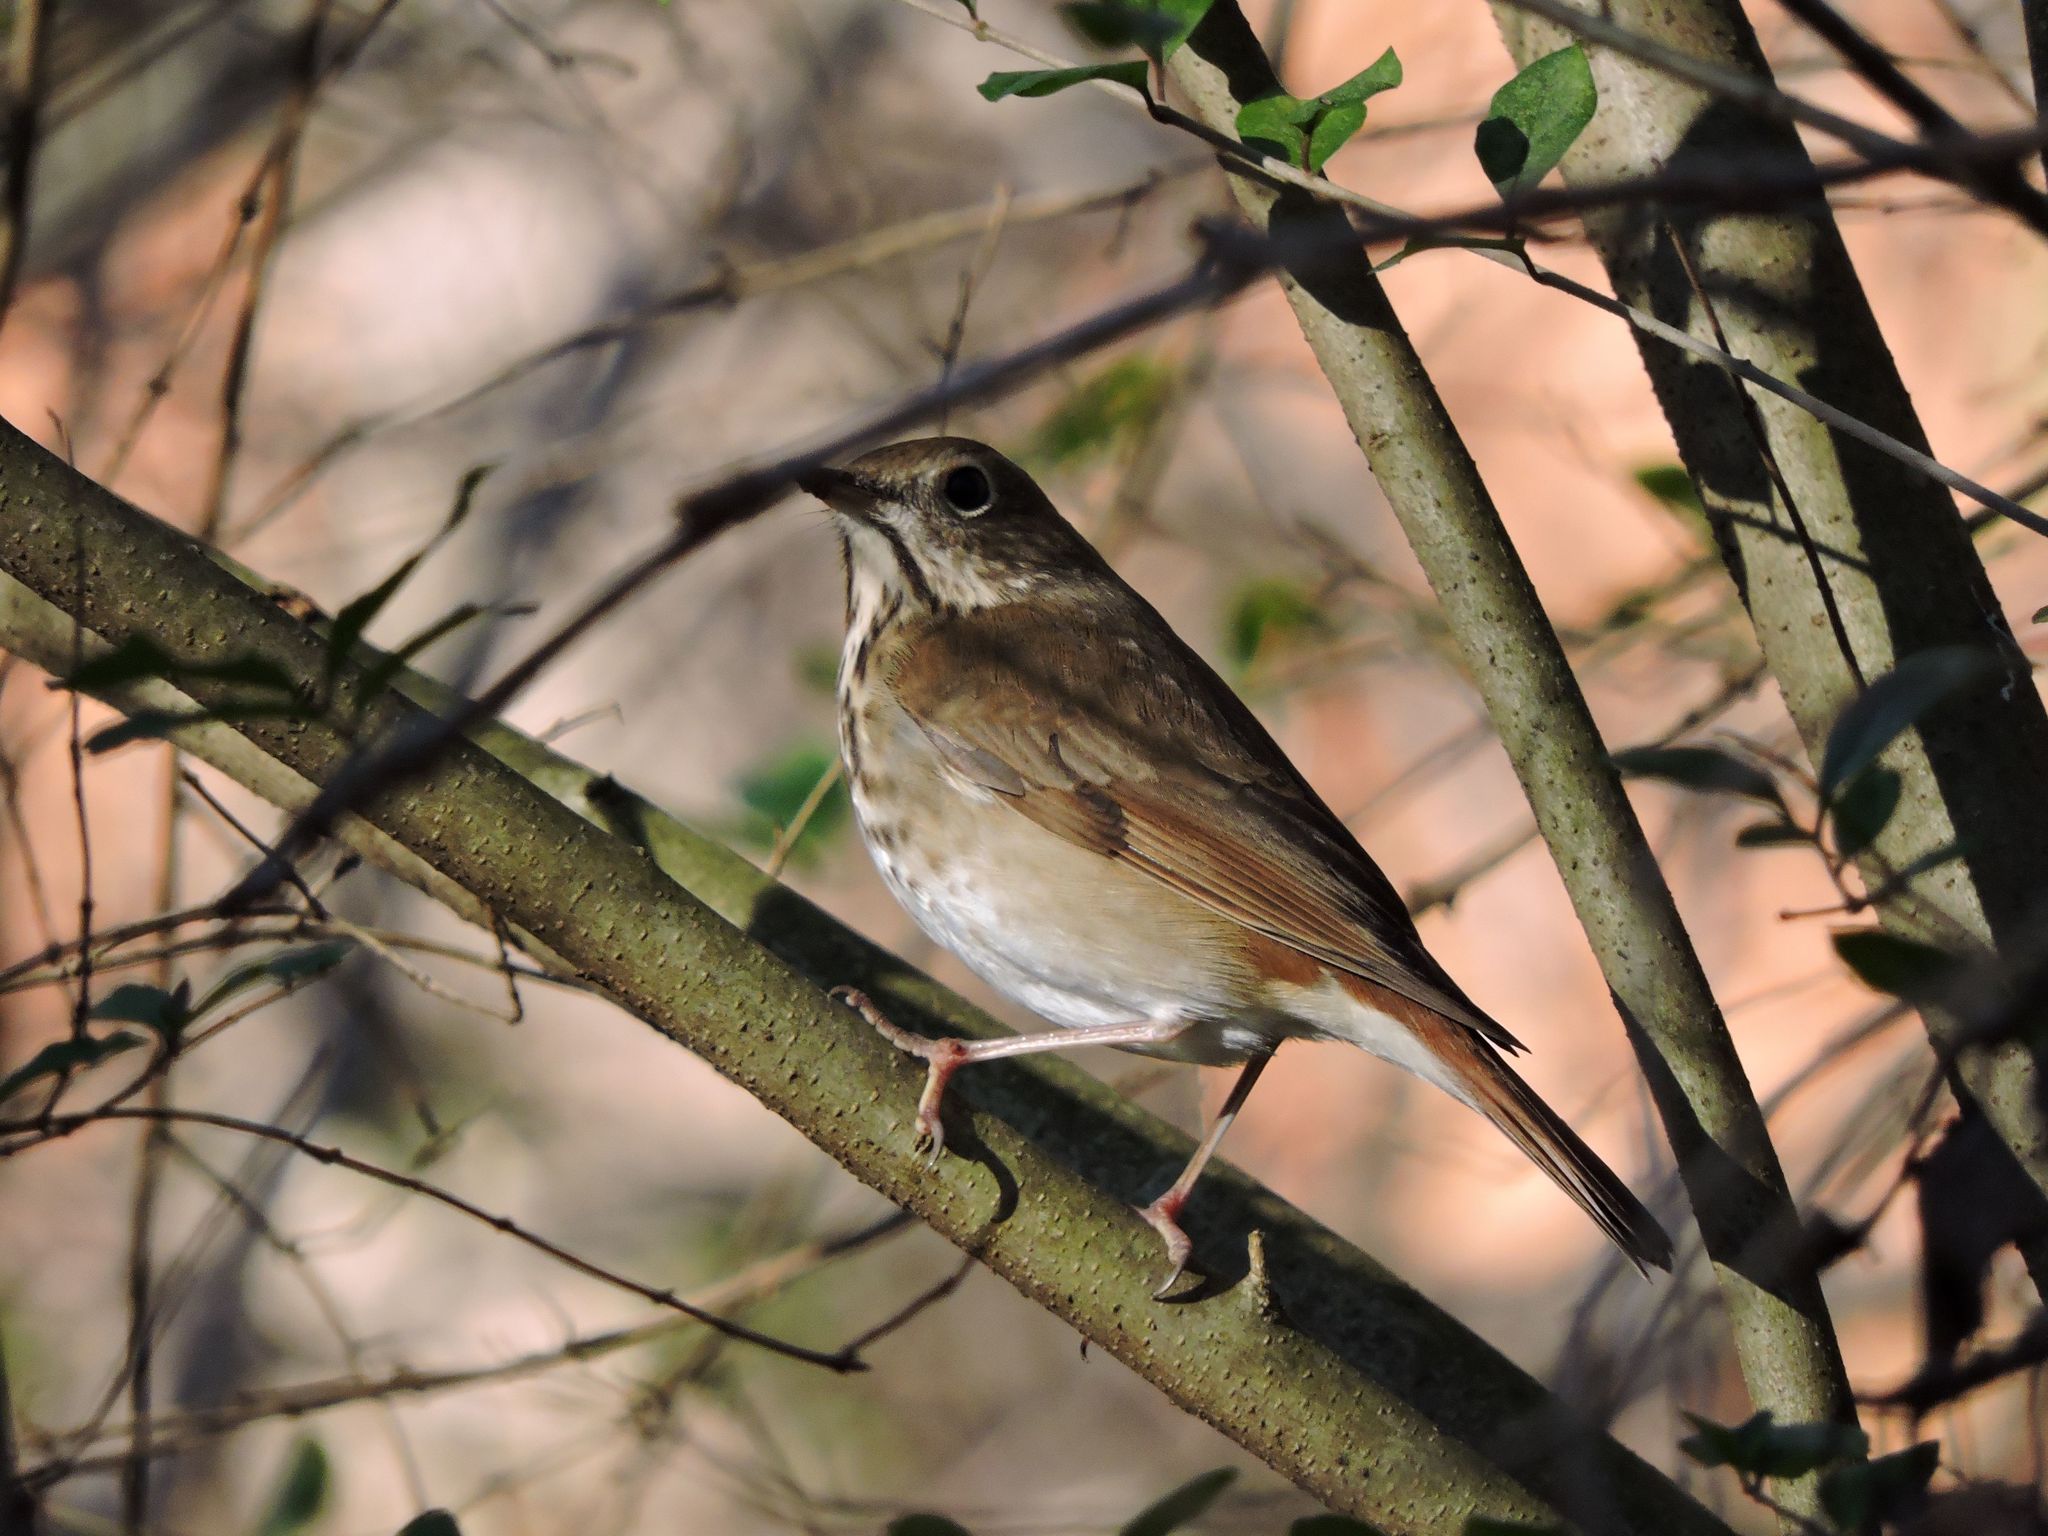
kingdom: Animalia
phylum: Chordata
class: Aves
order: Passeriformes
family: Turdidae
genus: Catharus
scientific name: Catharus guttatus
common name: Hermit thrush
